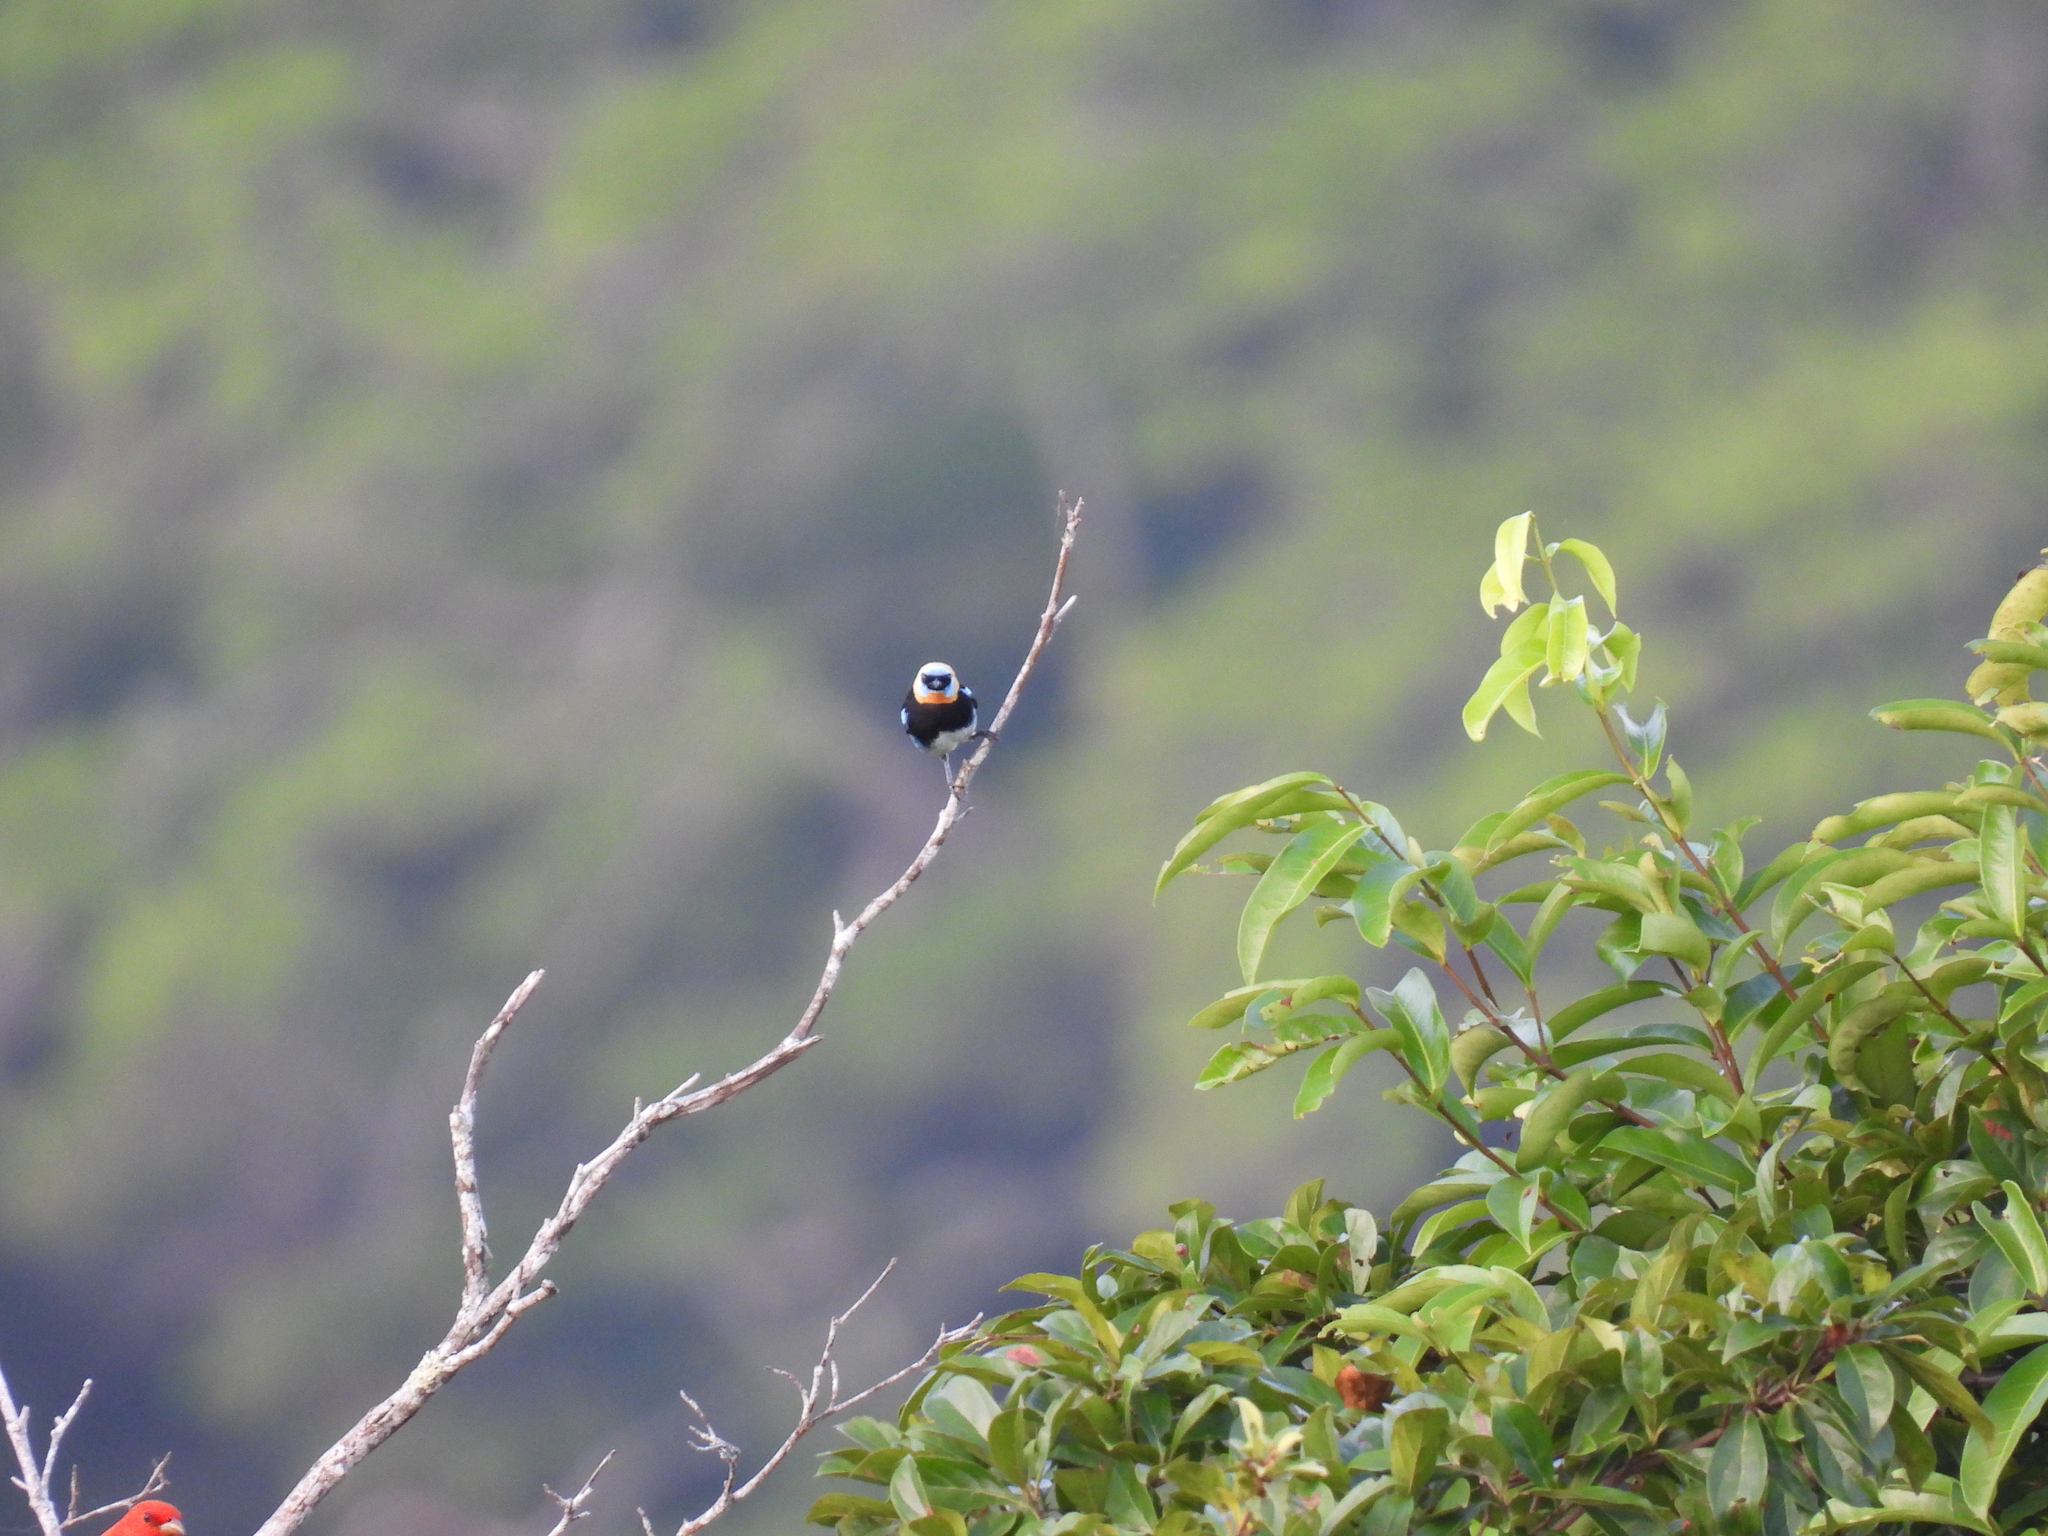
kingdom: Animalia
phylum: Chordata
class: Aves
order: Passeriformes
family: Thraupidae
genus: Stilpnia
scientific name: Stilpnia larvata
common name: Golden-hooded tanager
